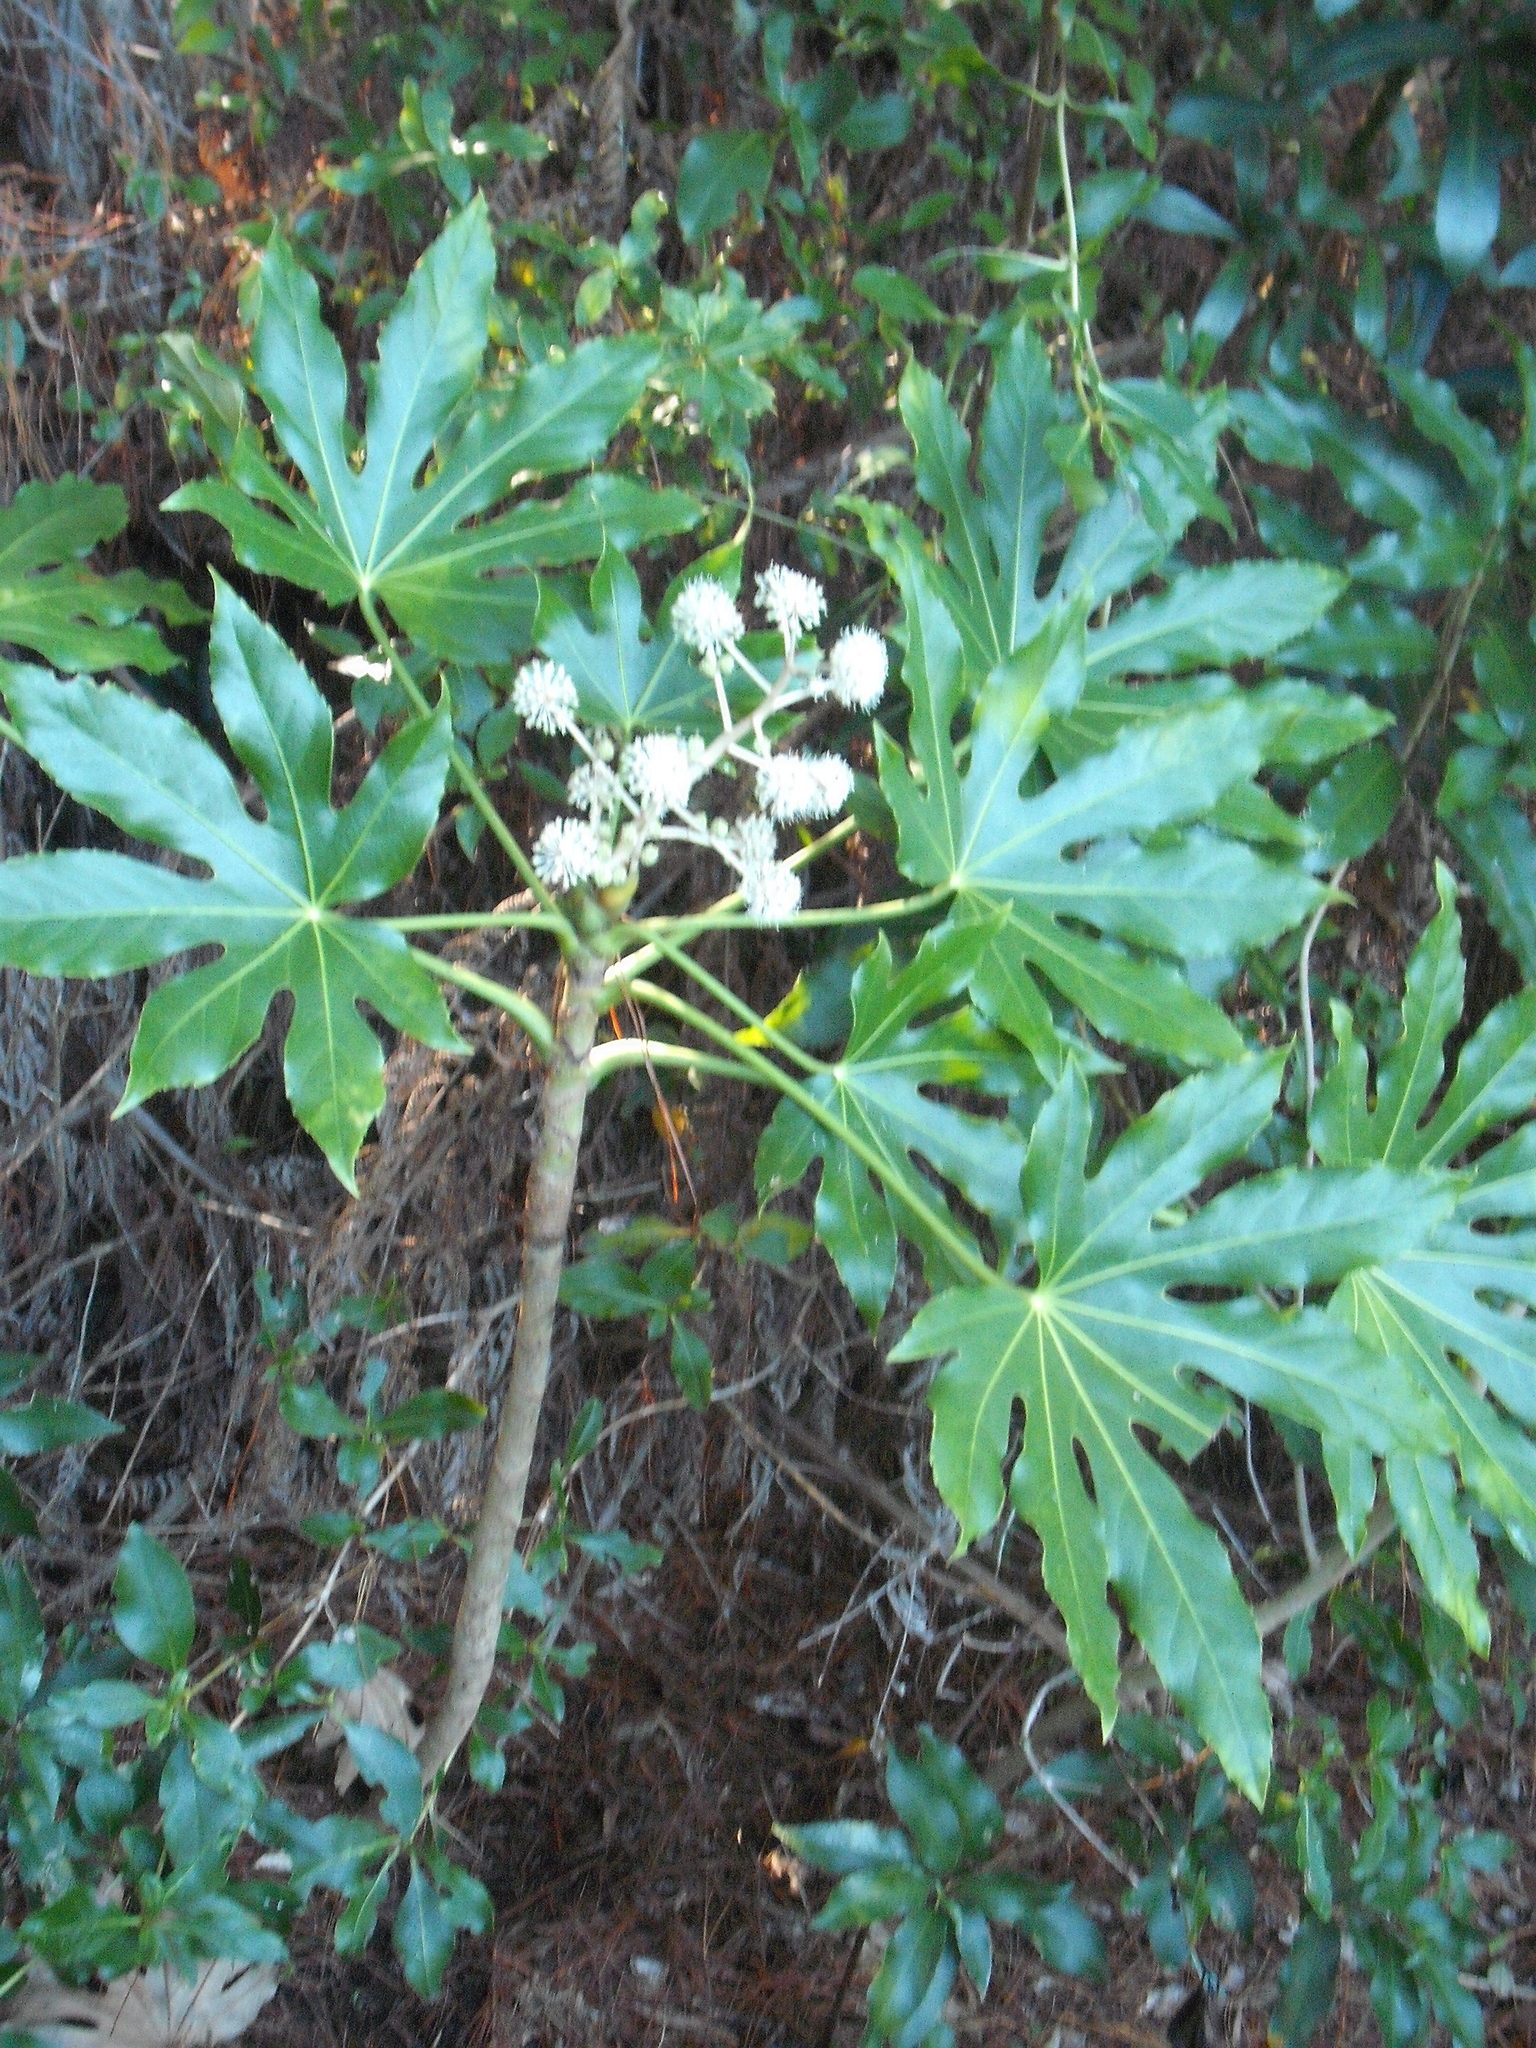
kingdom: Plantae
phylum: Tracheophyta
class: Magnoliopsida
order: Apiales
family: Araliaceae
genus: Fatsia
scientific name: Fatsia japonica
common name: Fatsia
